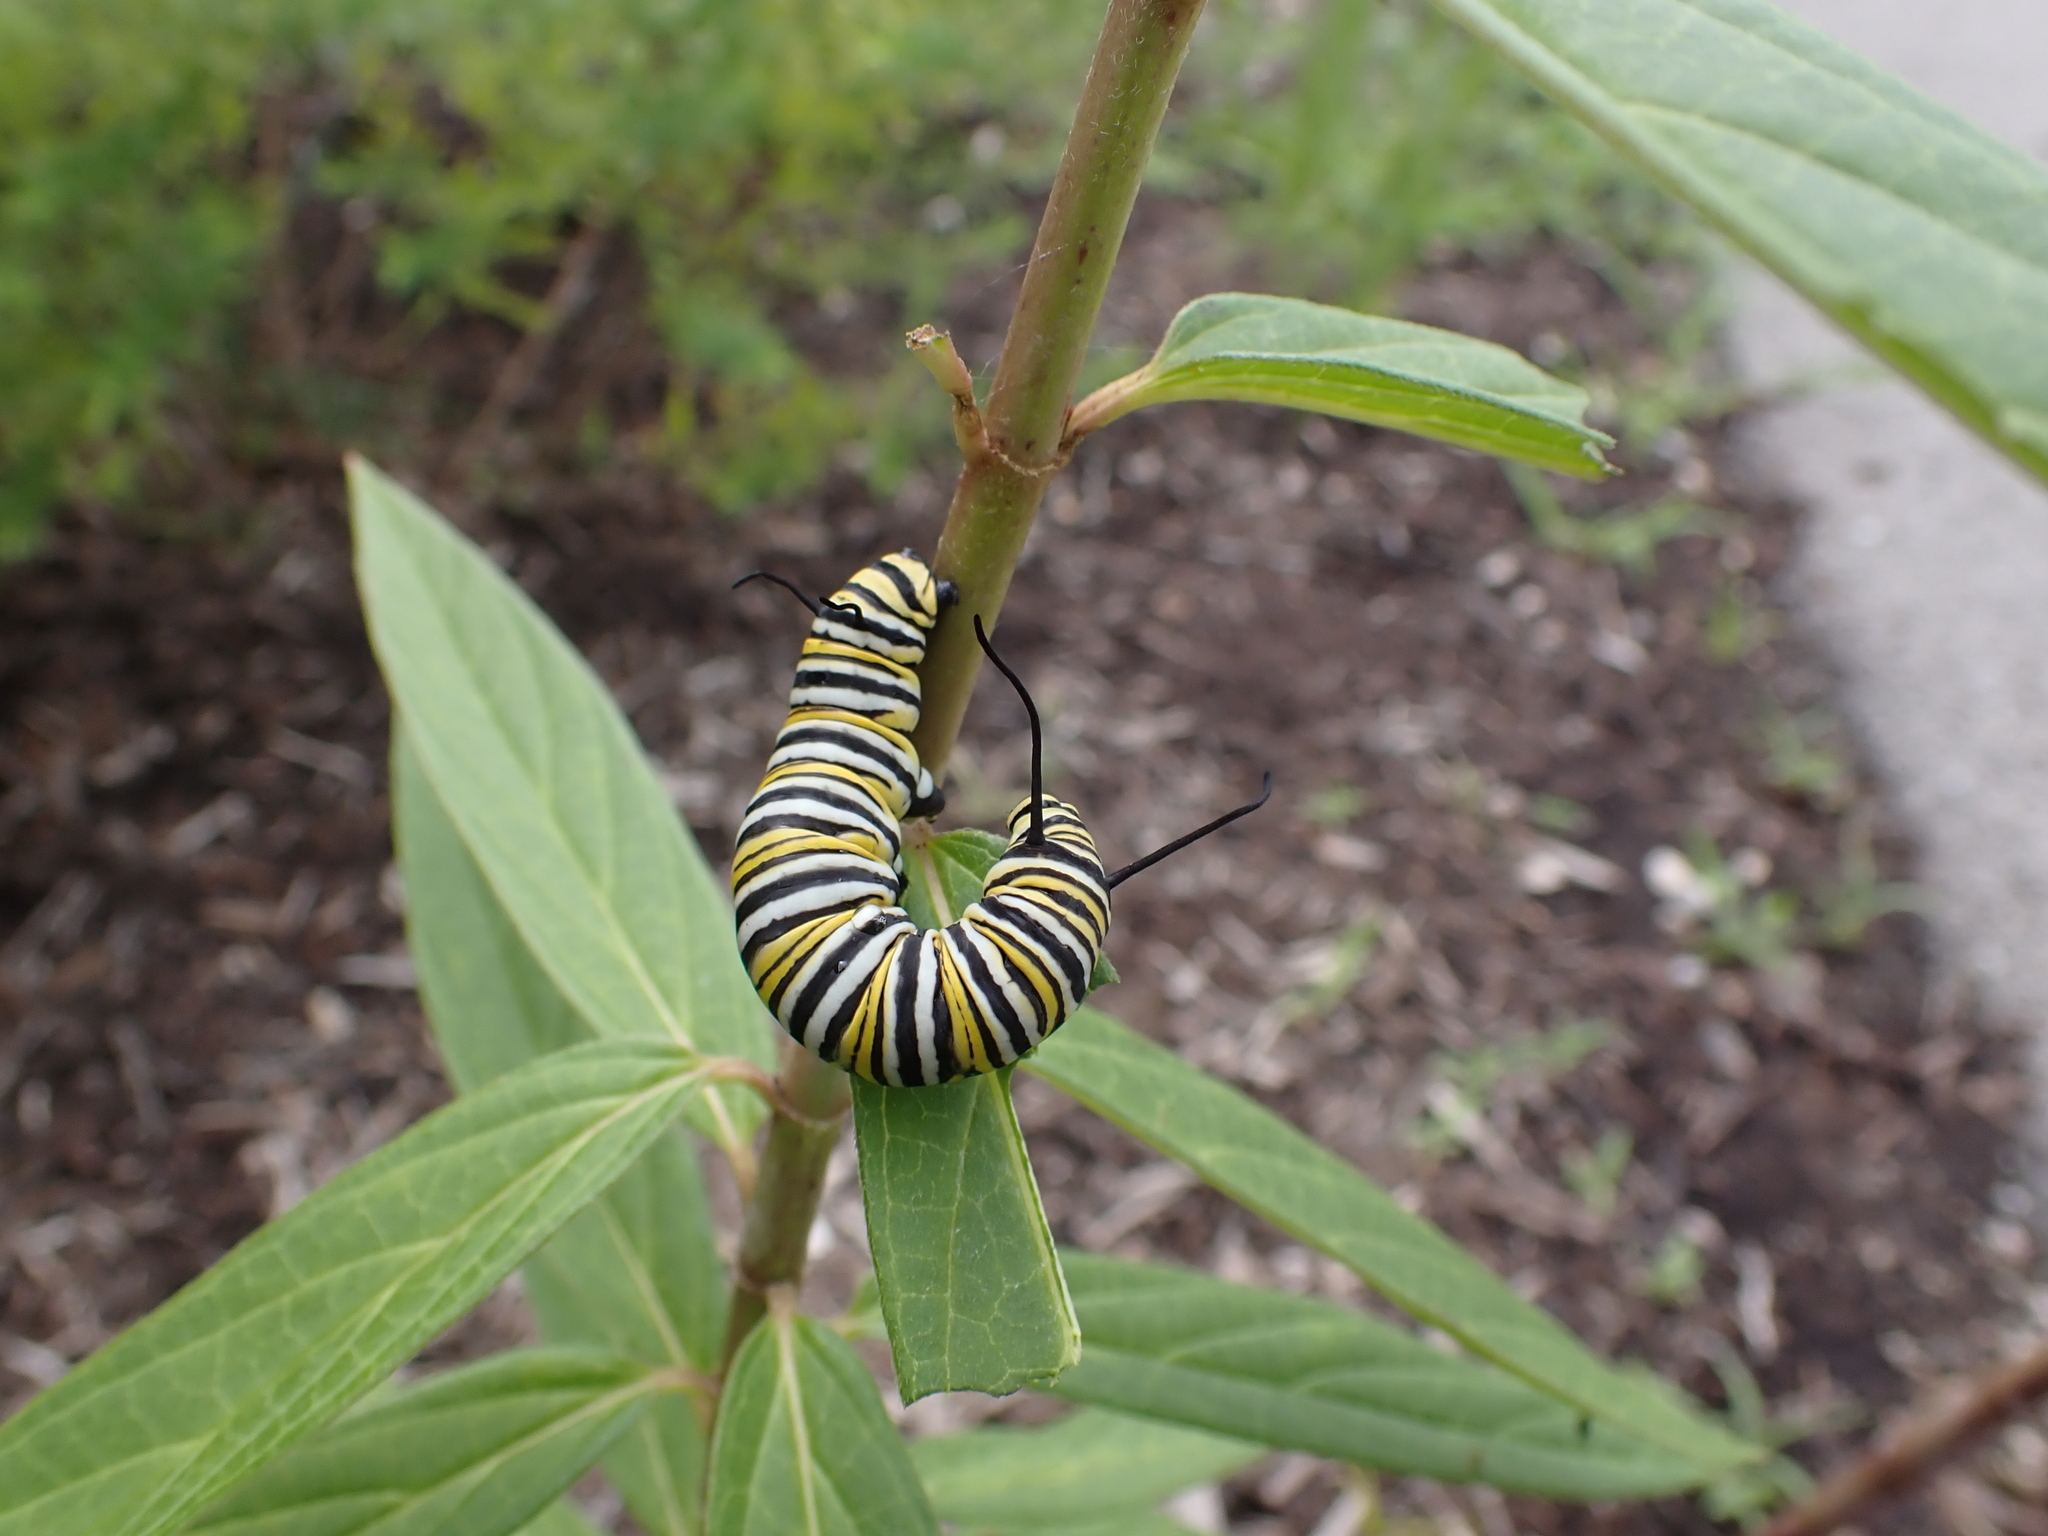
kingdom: Animalia
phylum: Arthropoda
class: Insecta
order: Lepidoptera
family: Nymphalidae
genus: Danaus
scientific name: Danaus plexippus
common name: Monarch
